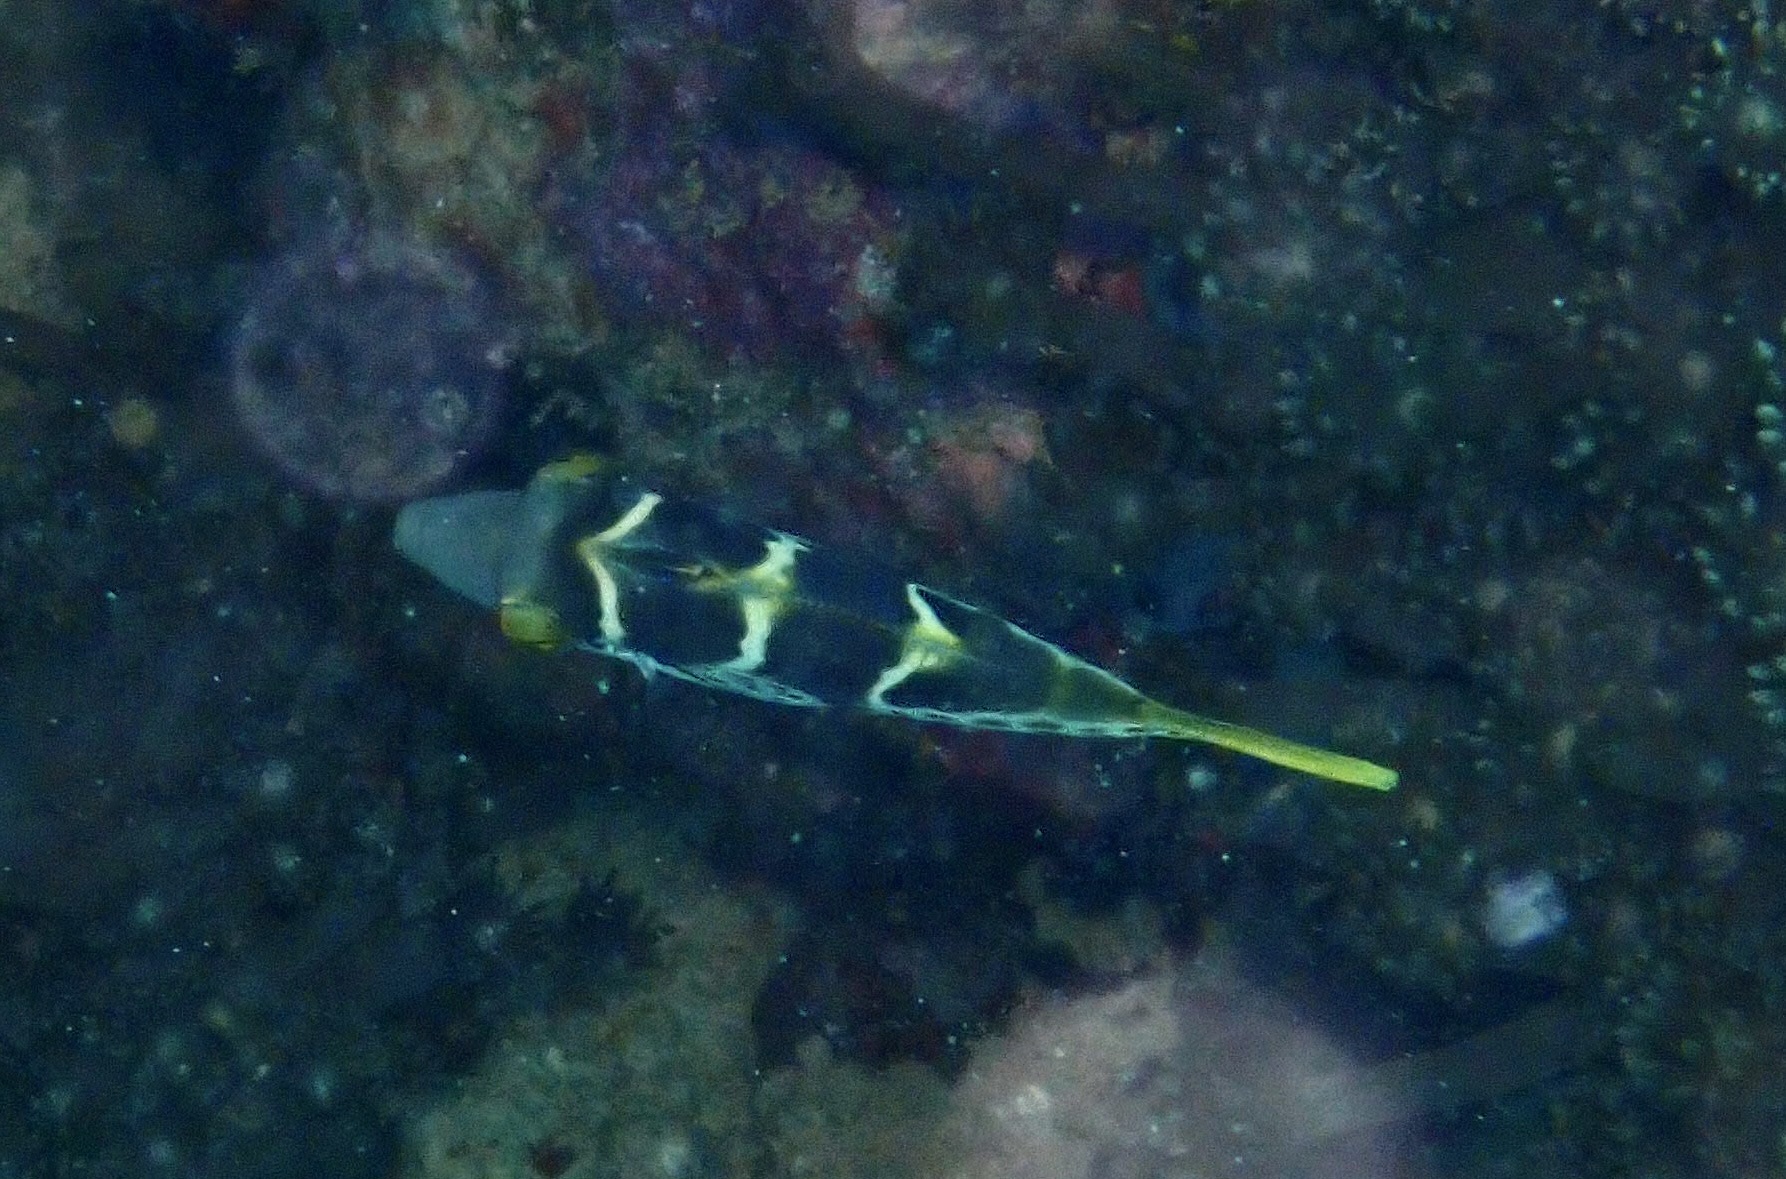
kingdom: Animalia
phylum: Chordata
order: Tetraodontiformes
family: Monacanthidae
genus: Paraluteres
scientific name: Paraluteres prionurus
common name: Black-saddled leatherjacket
